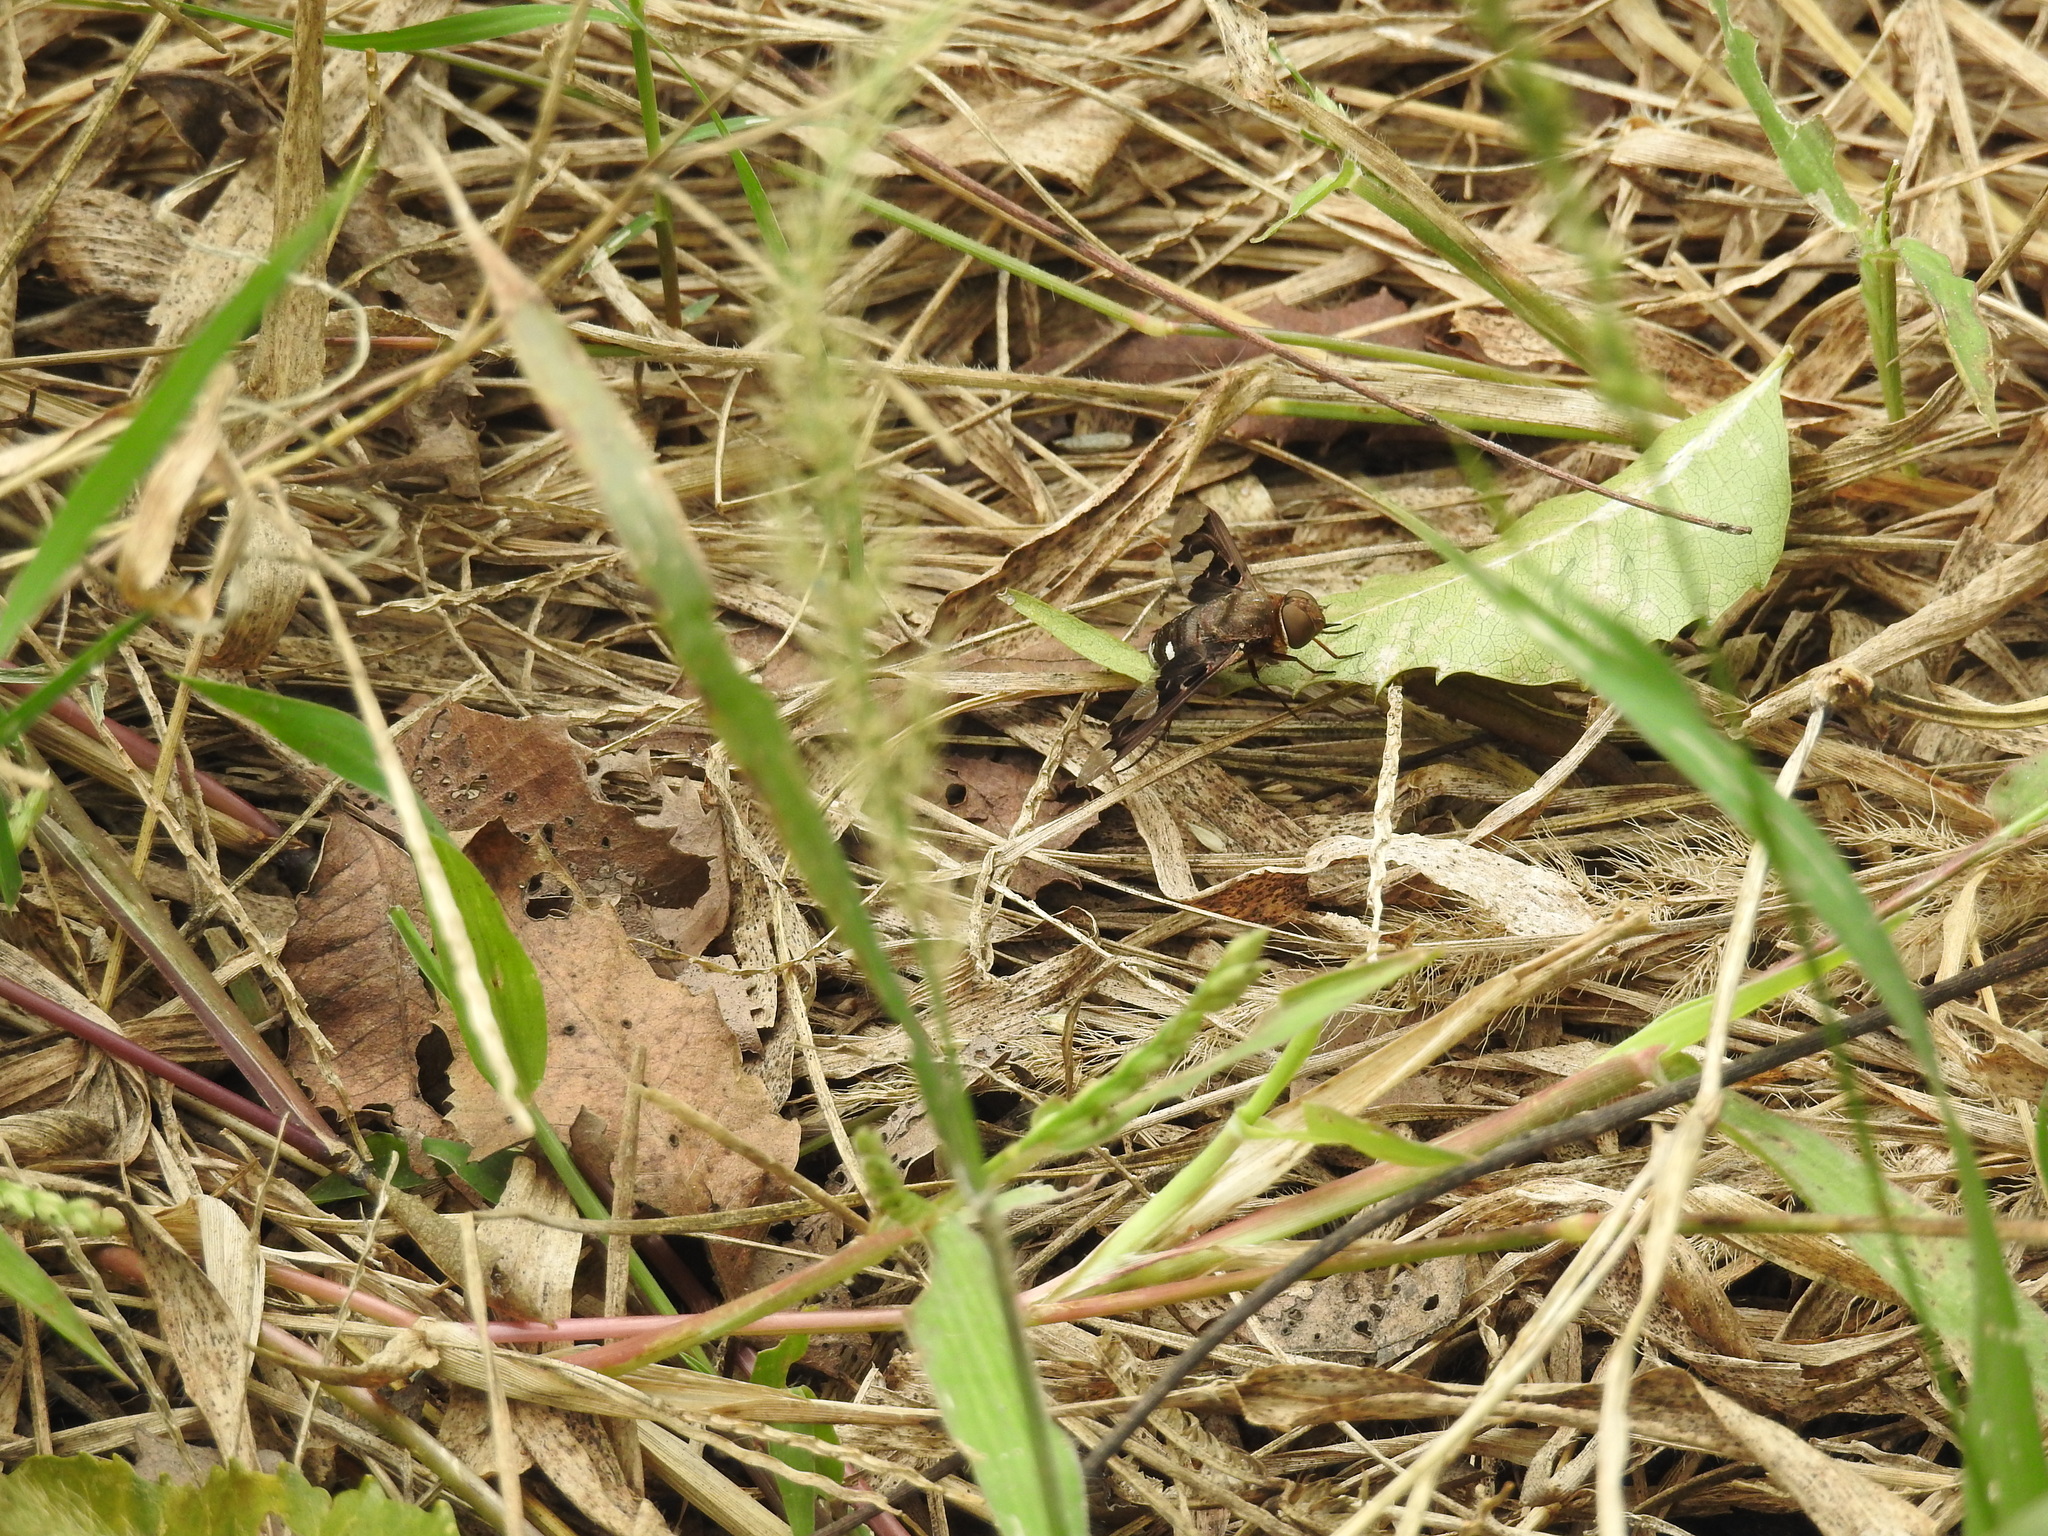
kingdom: Animalia
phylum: Arthropoda
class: Insecta
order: Diptera
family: Bombyliidae
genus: Litorhina
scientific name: Litorhina lar
